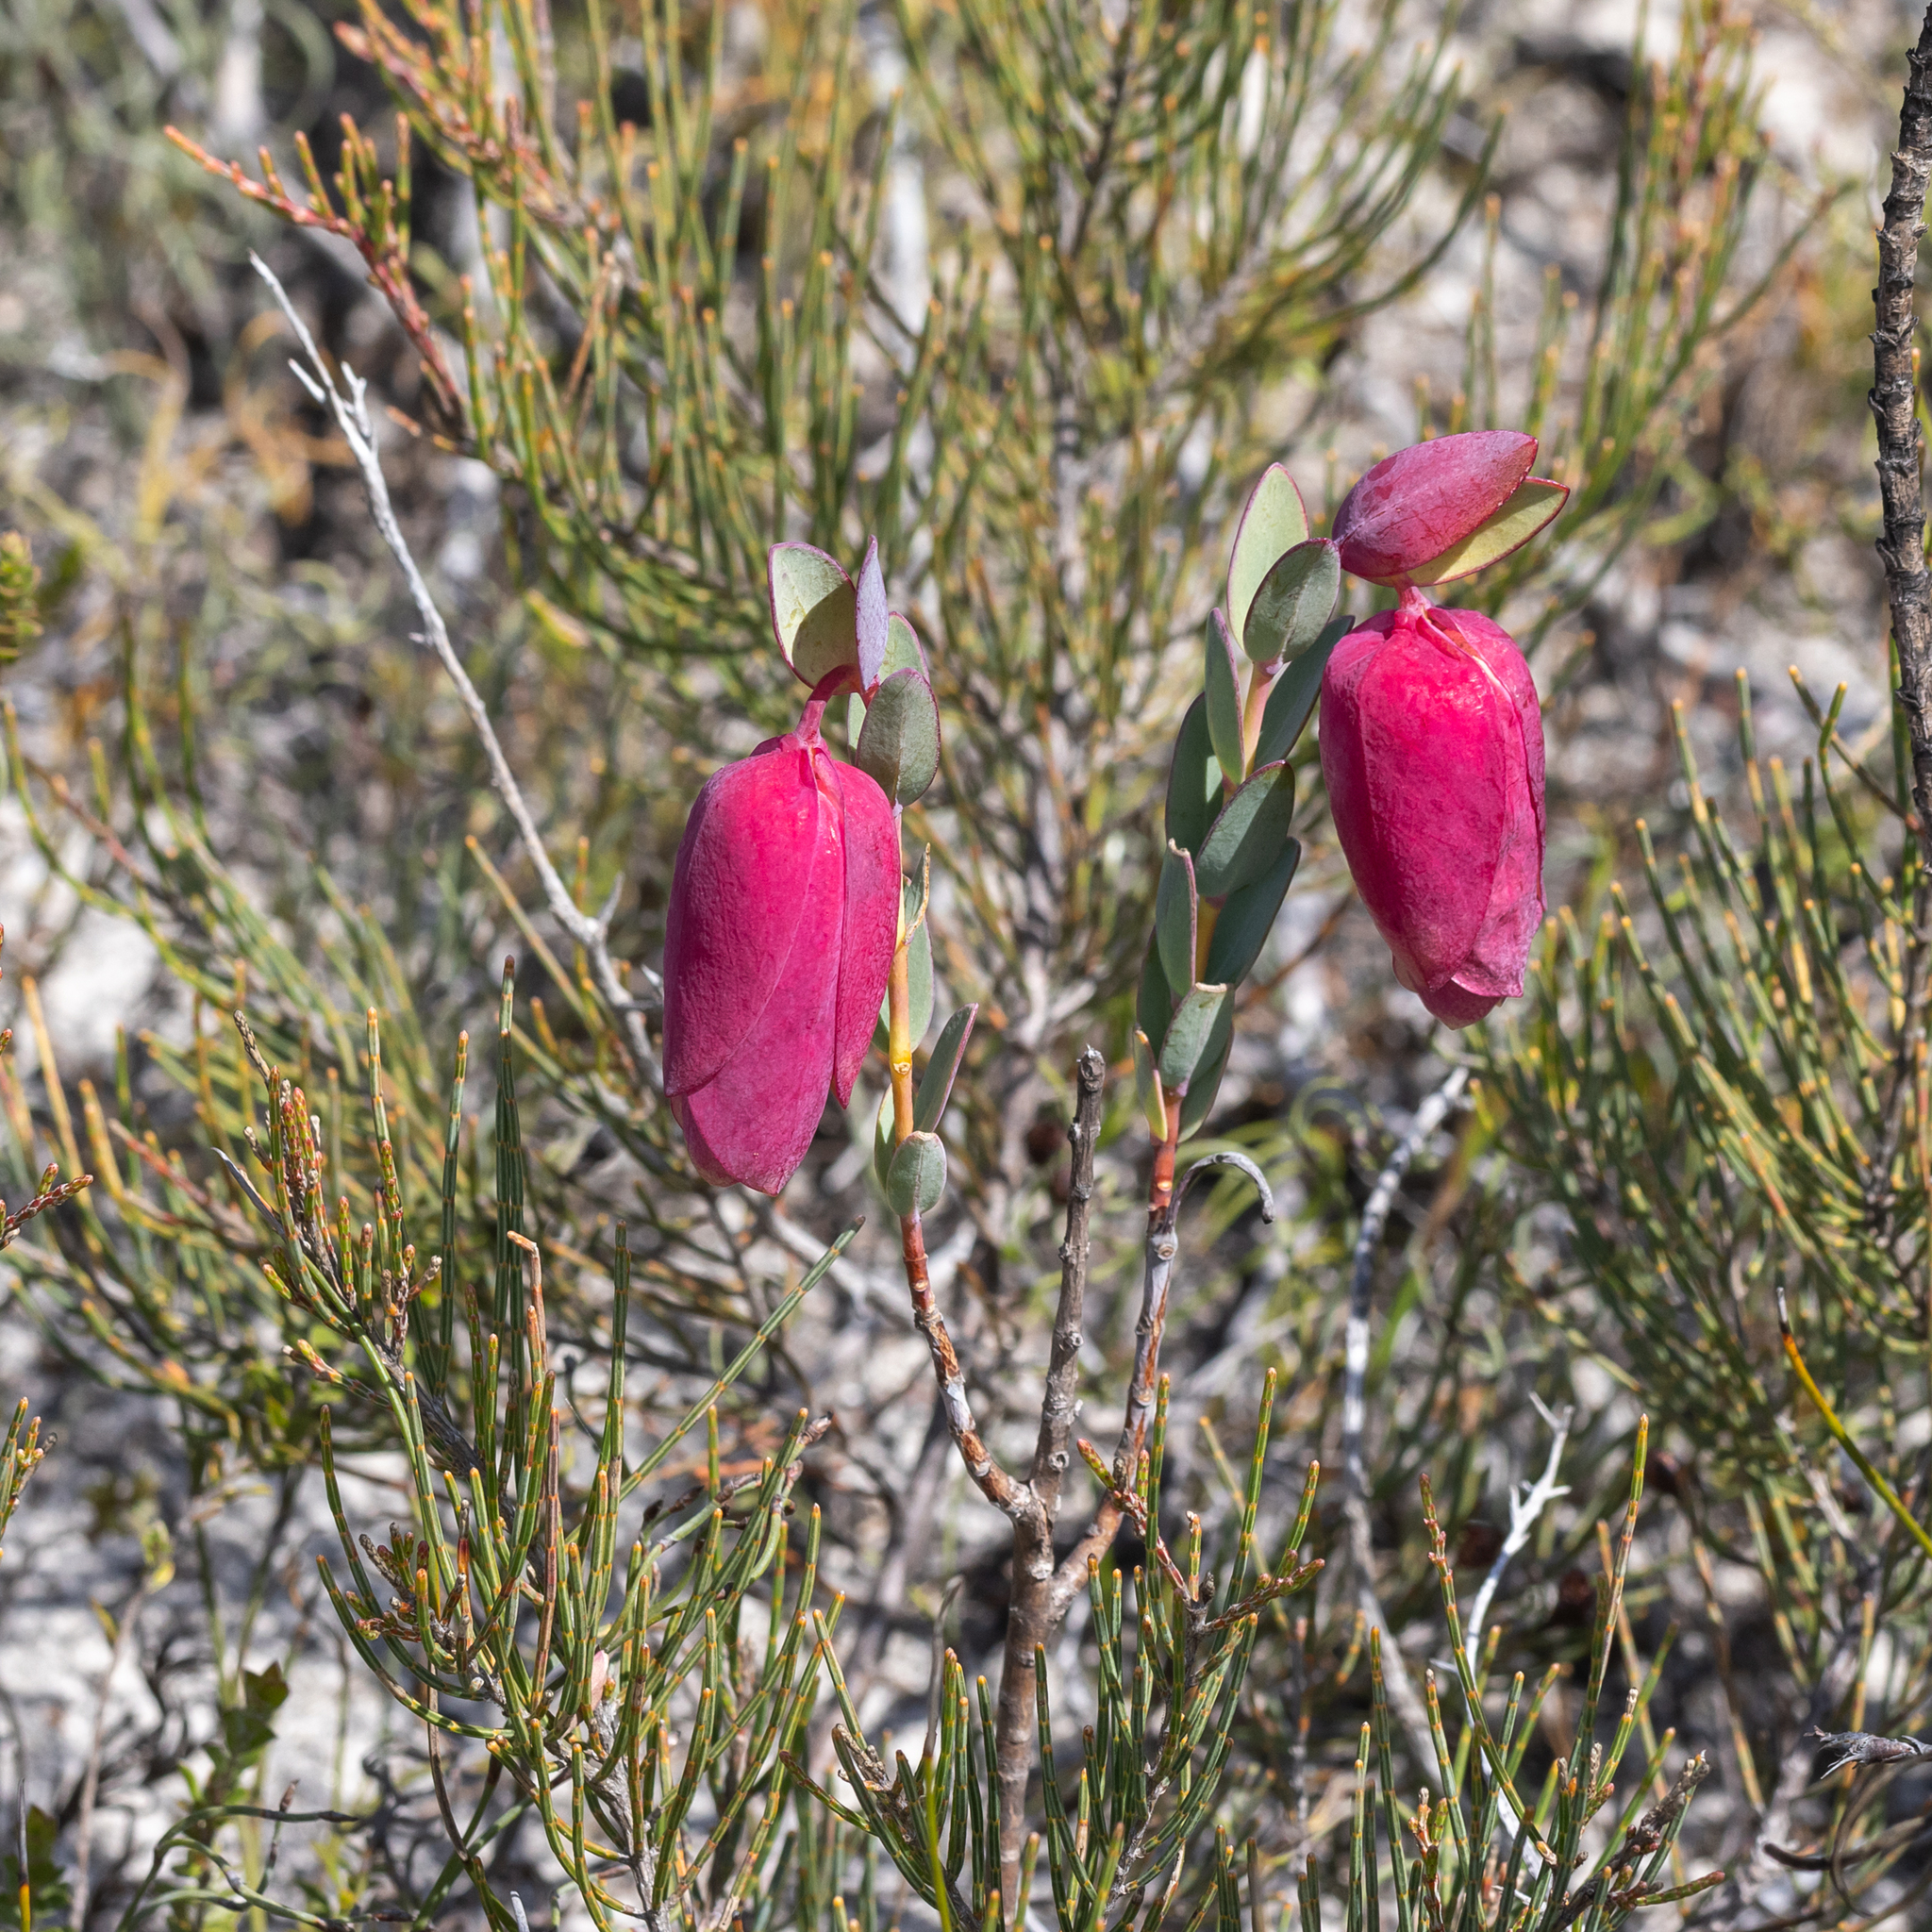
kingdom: Plantae
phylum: Tracheophyta
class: Magnoliopsida
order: Malvales
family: Thymelaeaceae
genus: Pimelea
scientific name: Pimelea physodes
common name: Qualup-bell
